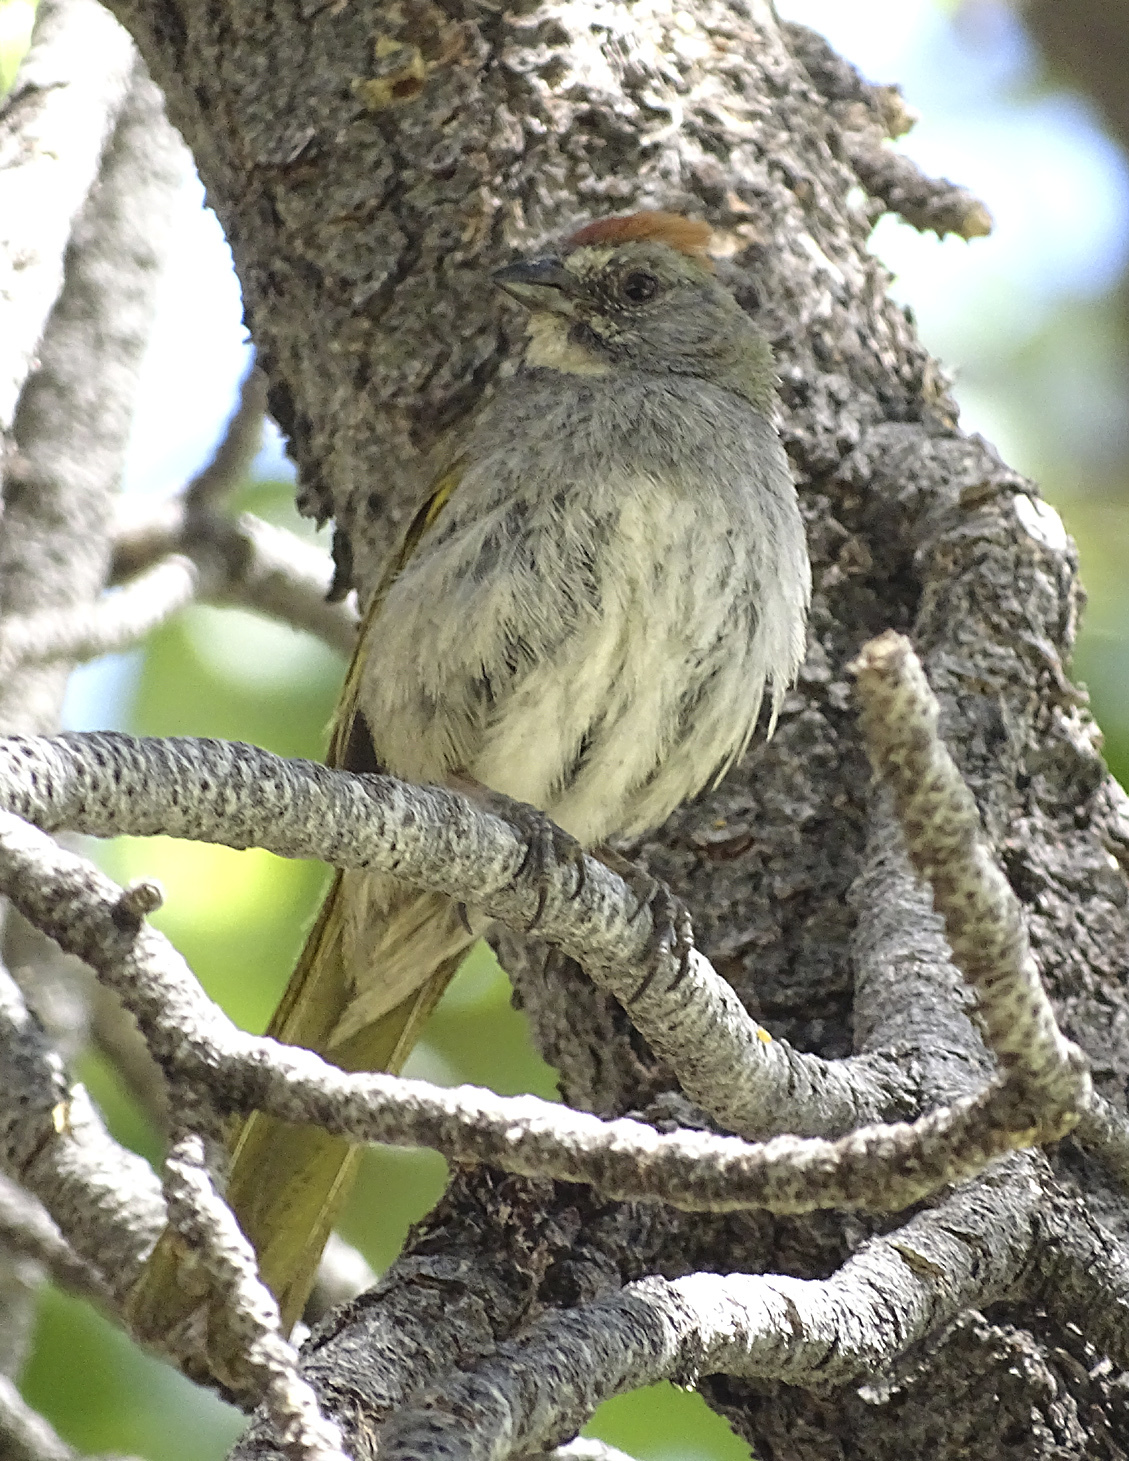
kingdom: Animalia
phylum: Chordata
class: Aves
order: Passeriformes
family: Passerellidae
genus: Pipilo
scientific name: Pipilo chlorurus
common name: Green-tailed towhee
